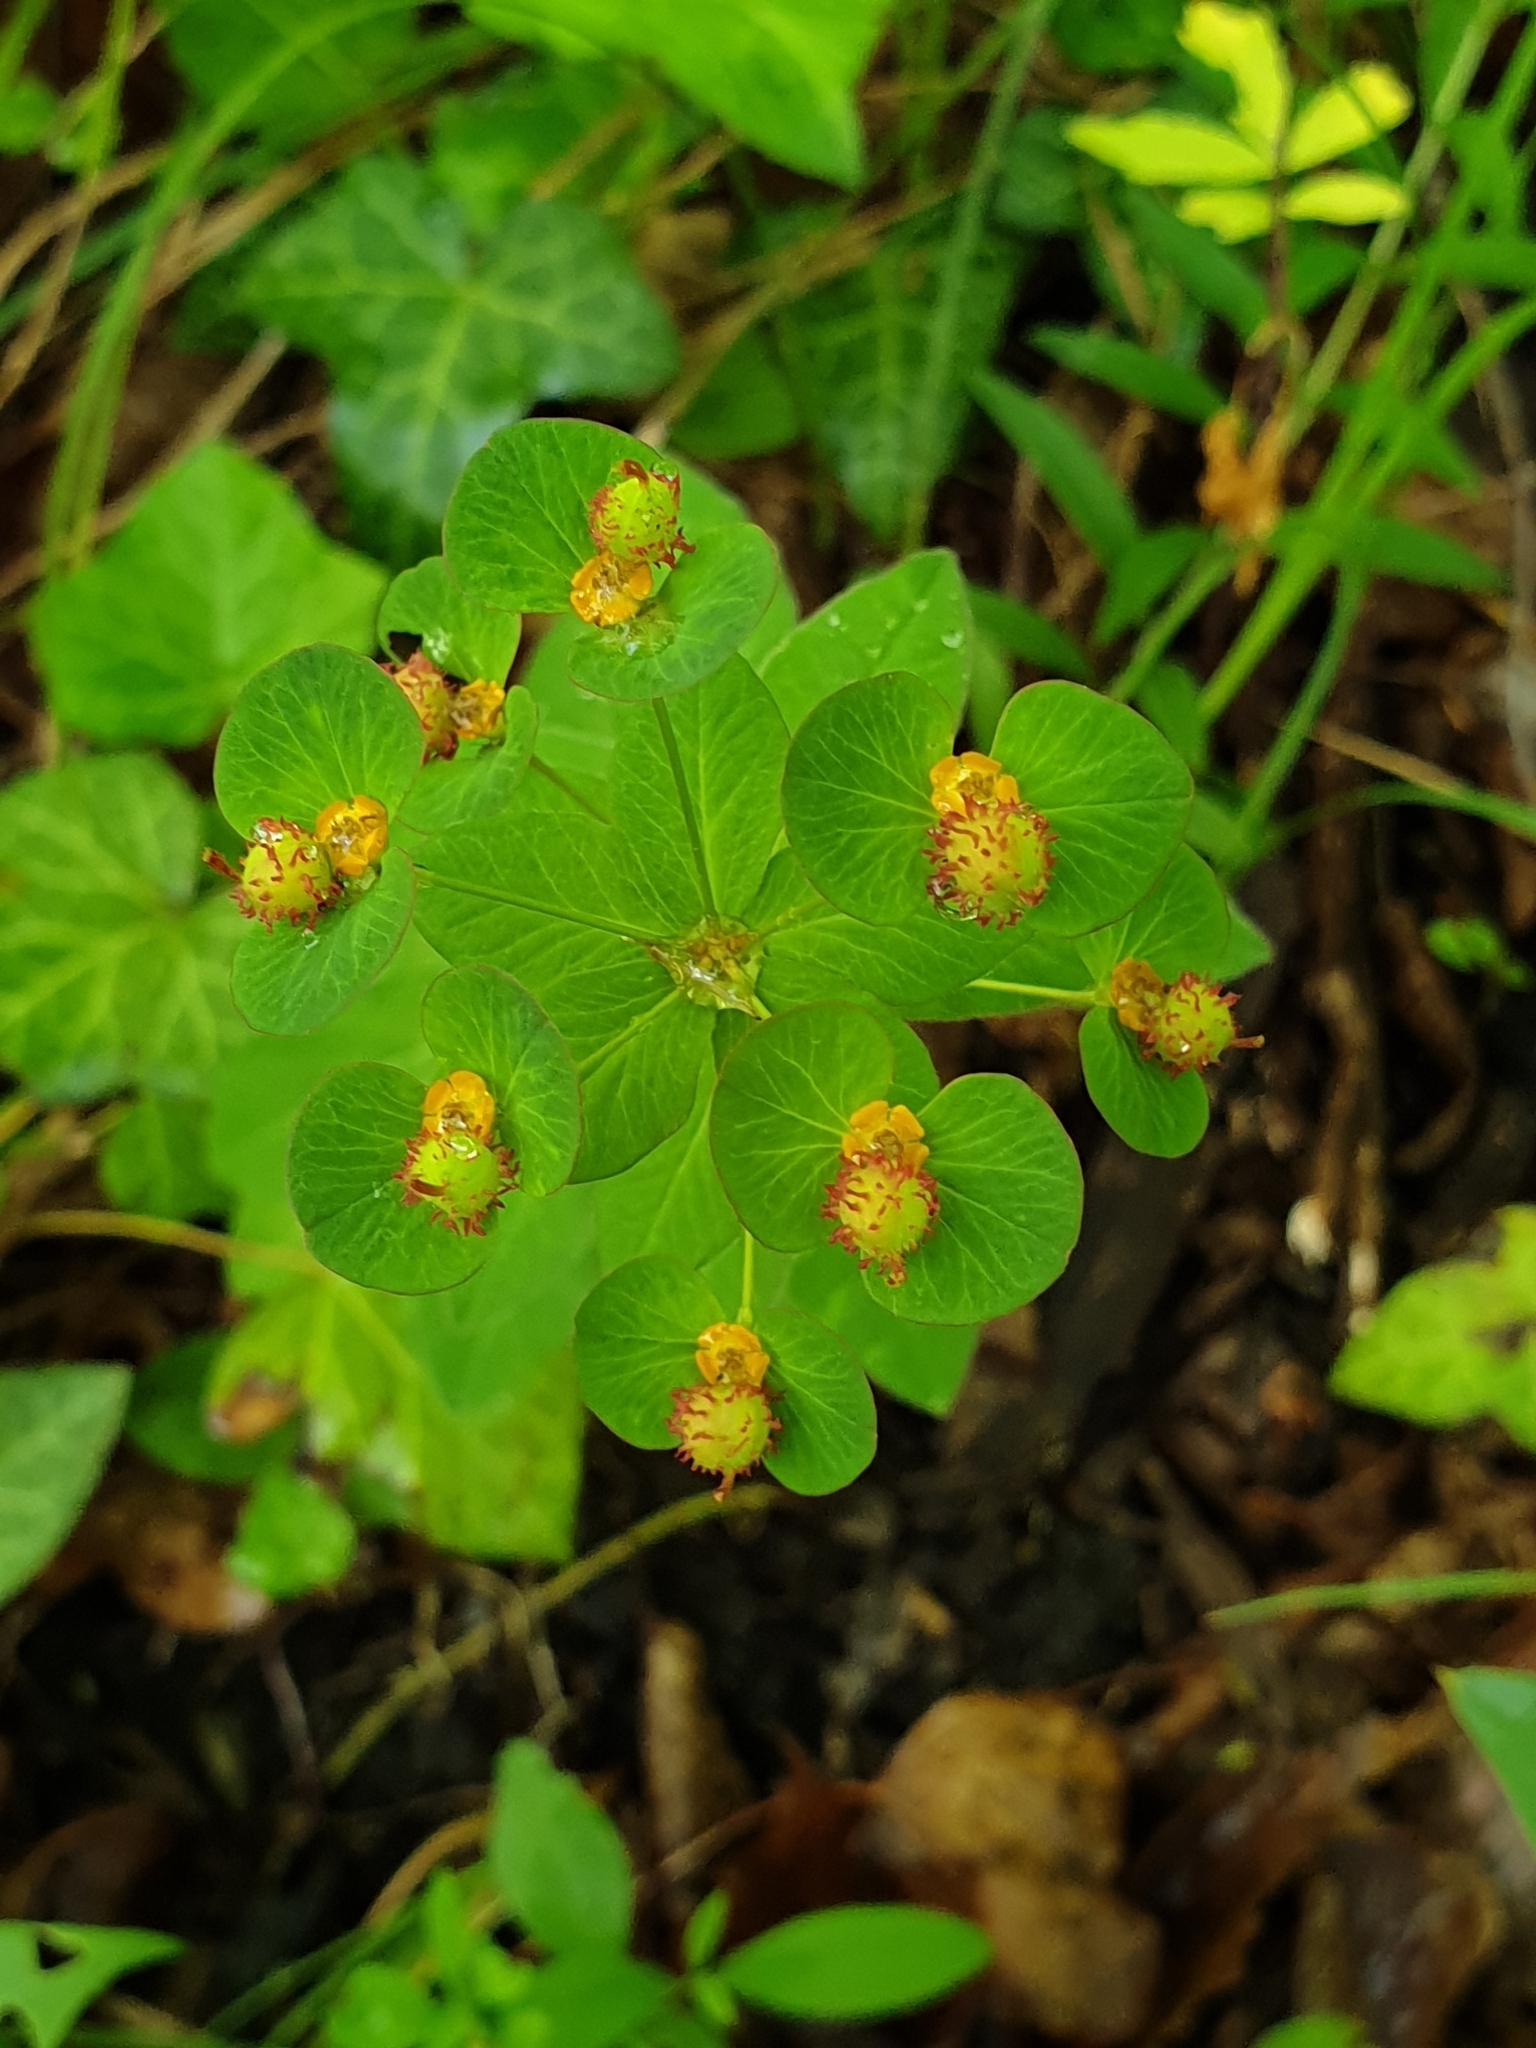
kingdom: Plantae
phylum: Tracheophyta
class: Magnoliopsida
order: Malpighiales
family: Euphorbiaceae
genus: Euphorbia
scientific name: Euphorbia squamosa
